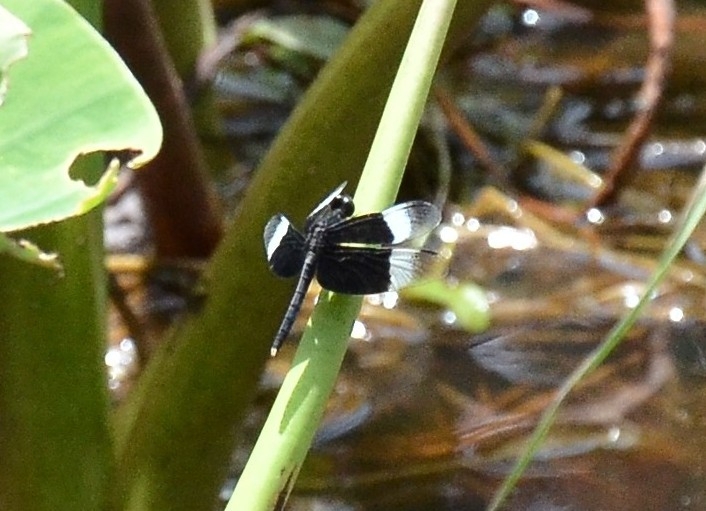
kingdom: Animalia
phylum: Arthropoda
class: Insecta
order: Odonata
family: Libellulidae
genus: Neurothemis
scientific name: Neurothemis tullia
